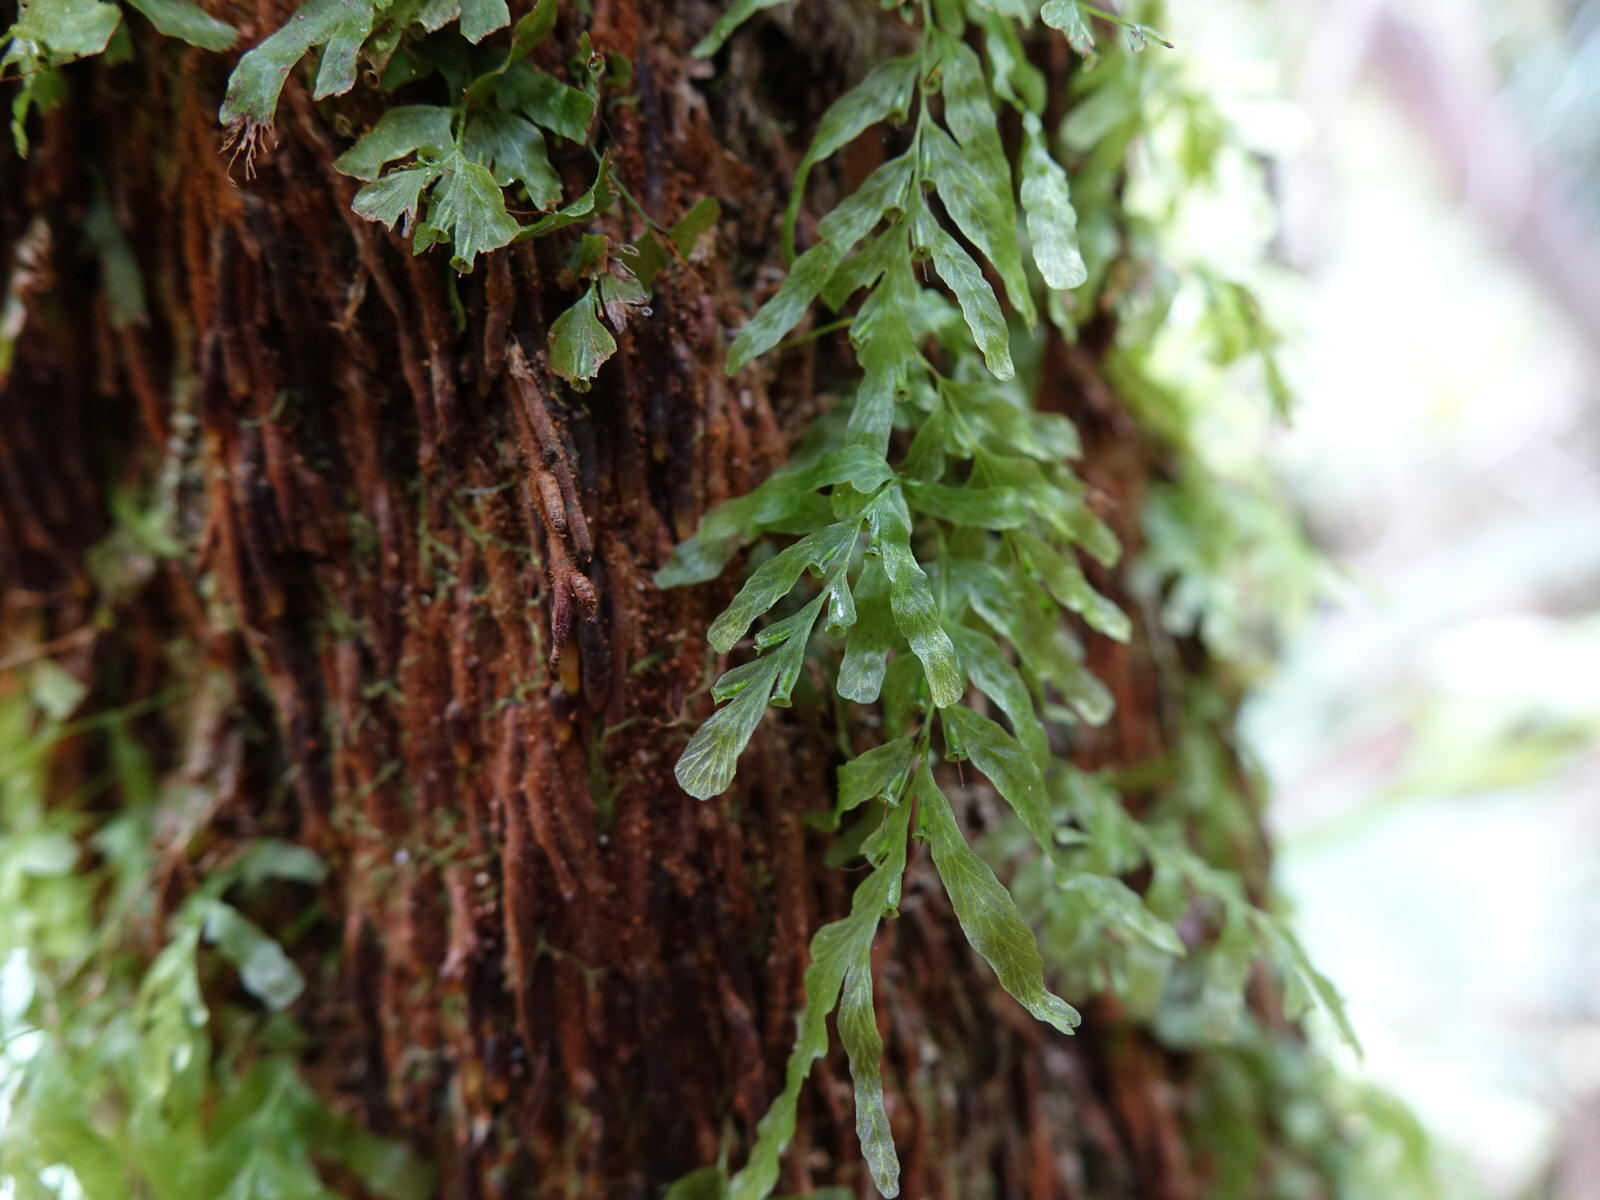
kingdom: Plantae
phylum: Tracheophyta
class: Polypodiopsida
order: Hymenophyllales
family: Hymenophyllaceae
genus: Polyphlebium
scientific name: Polyphlebium venosum
